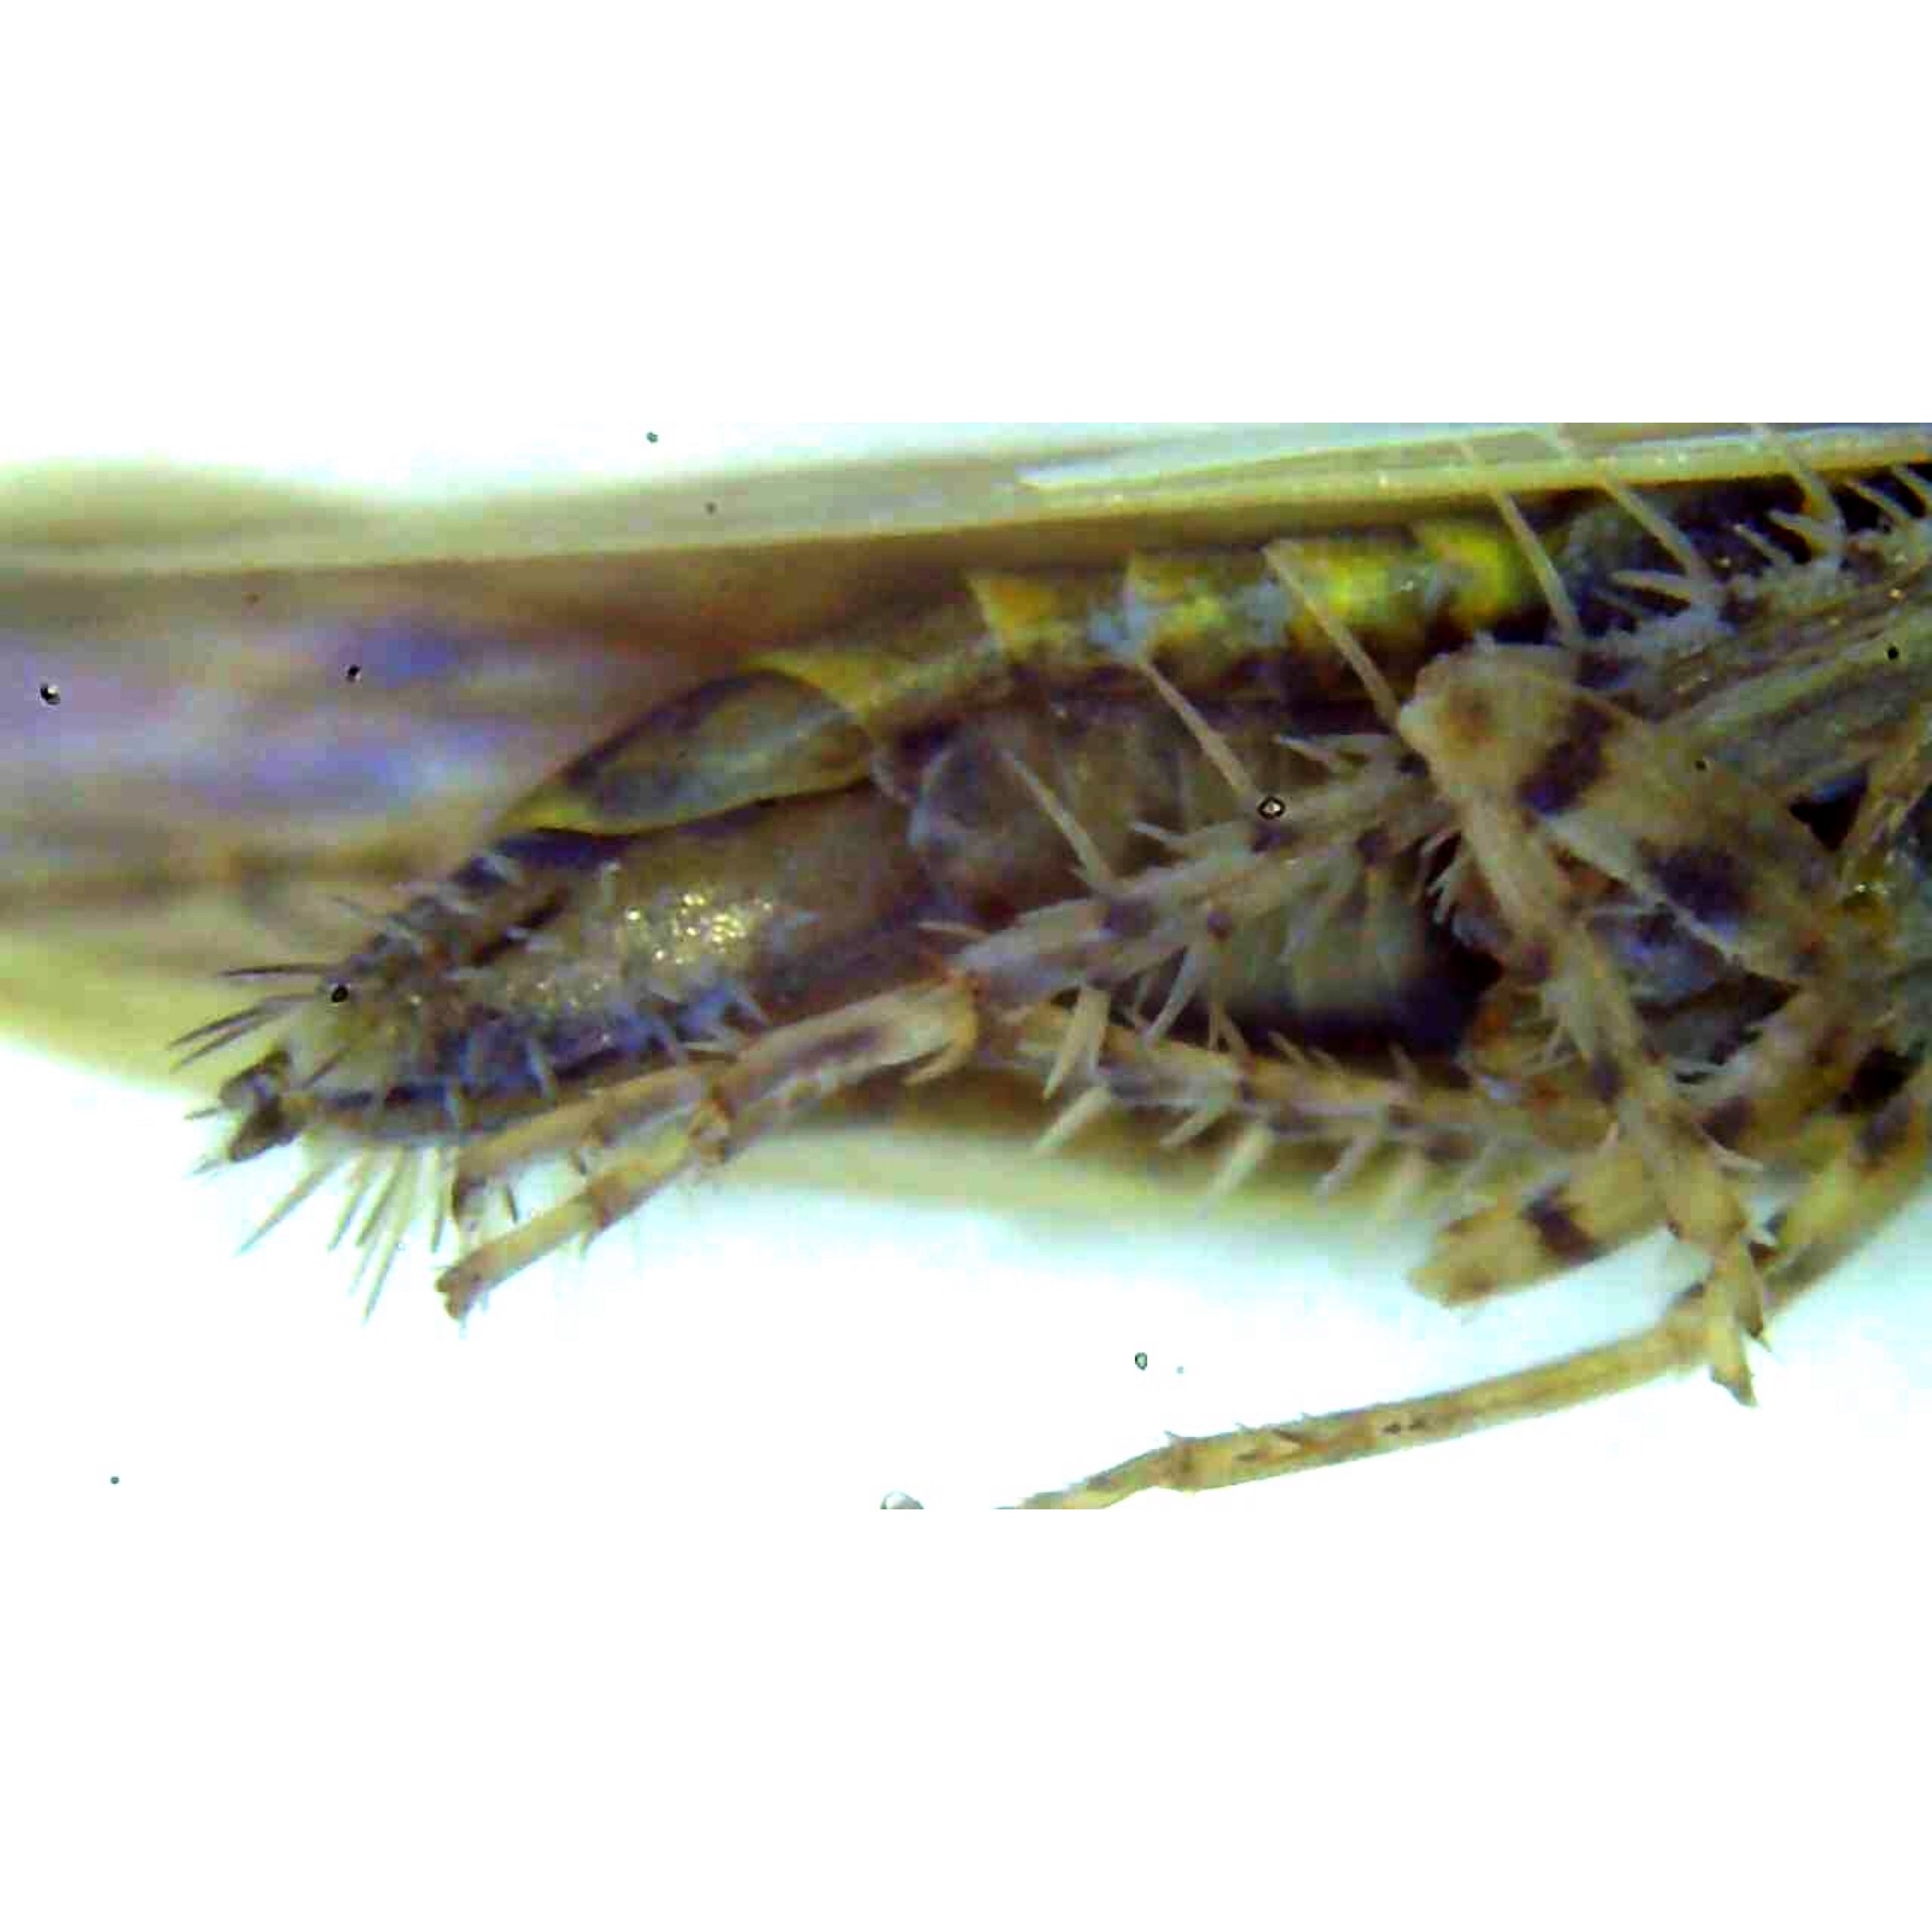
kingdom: Animalia
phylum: Arthropoda
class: Insecta
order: Hemiptera
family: Cicadellidae
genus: Graminella
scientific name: Graminella sonora
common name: Lesser lawn leafhopper
